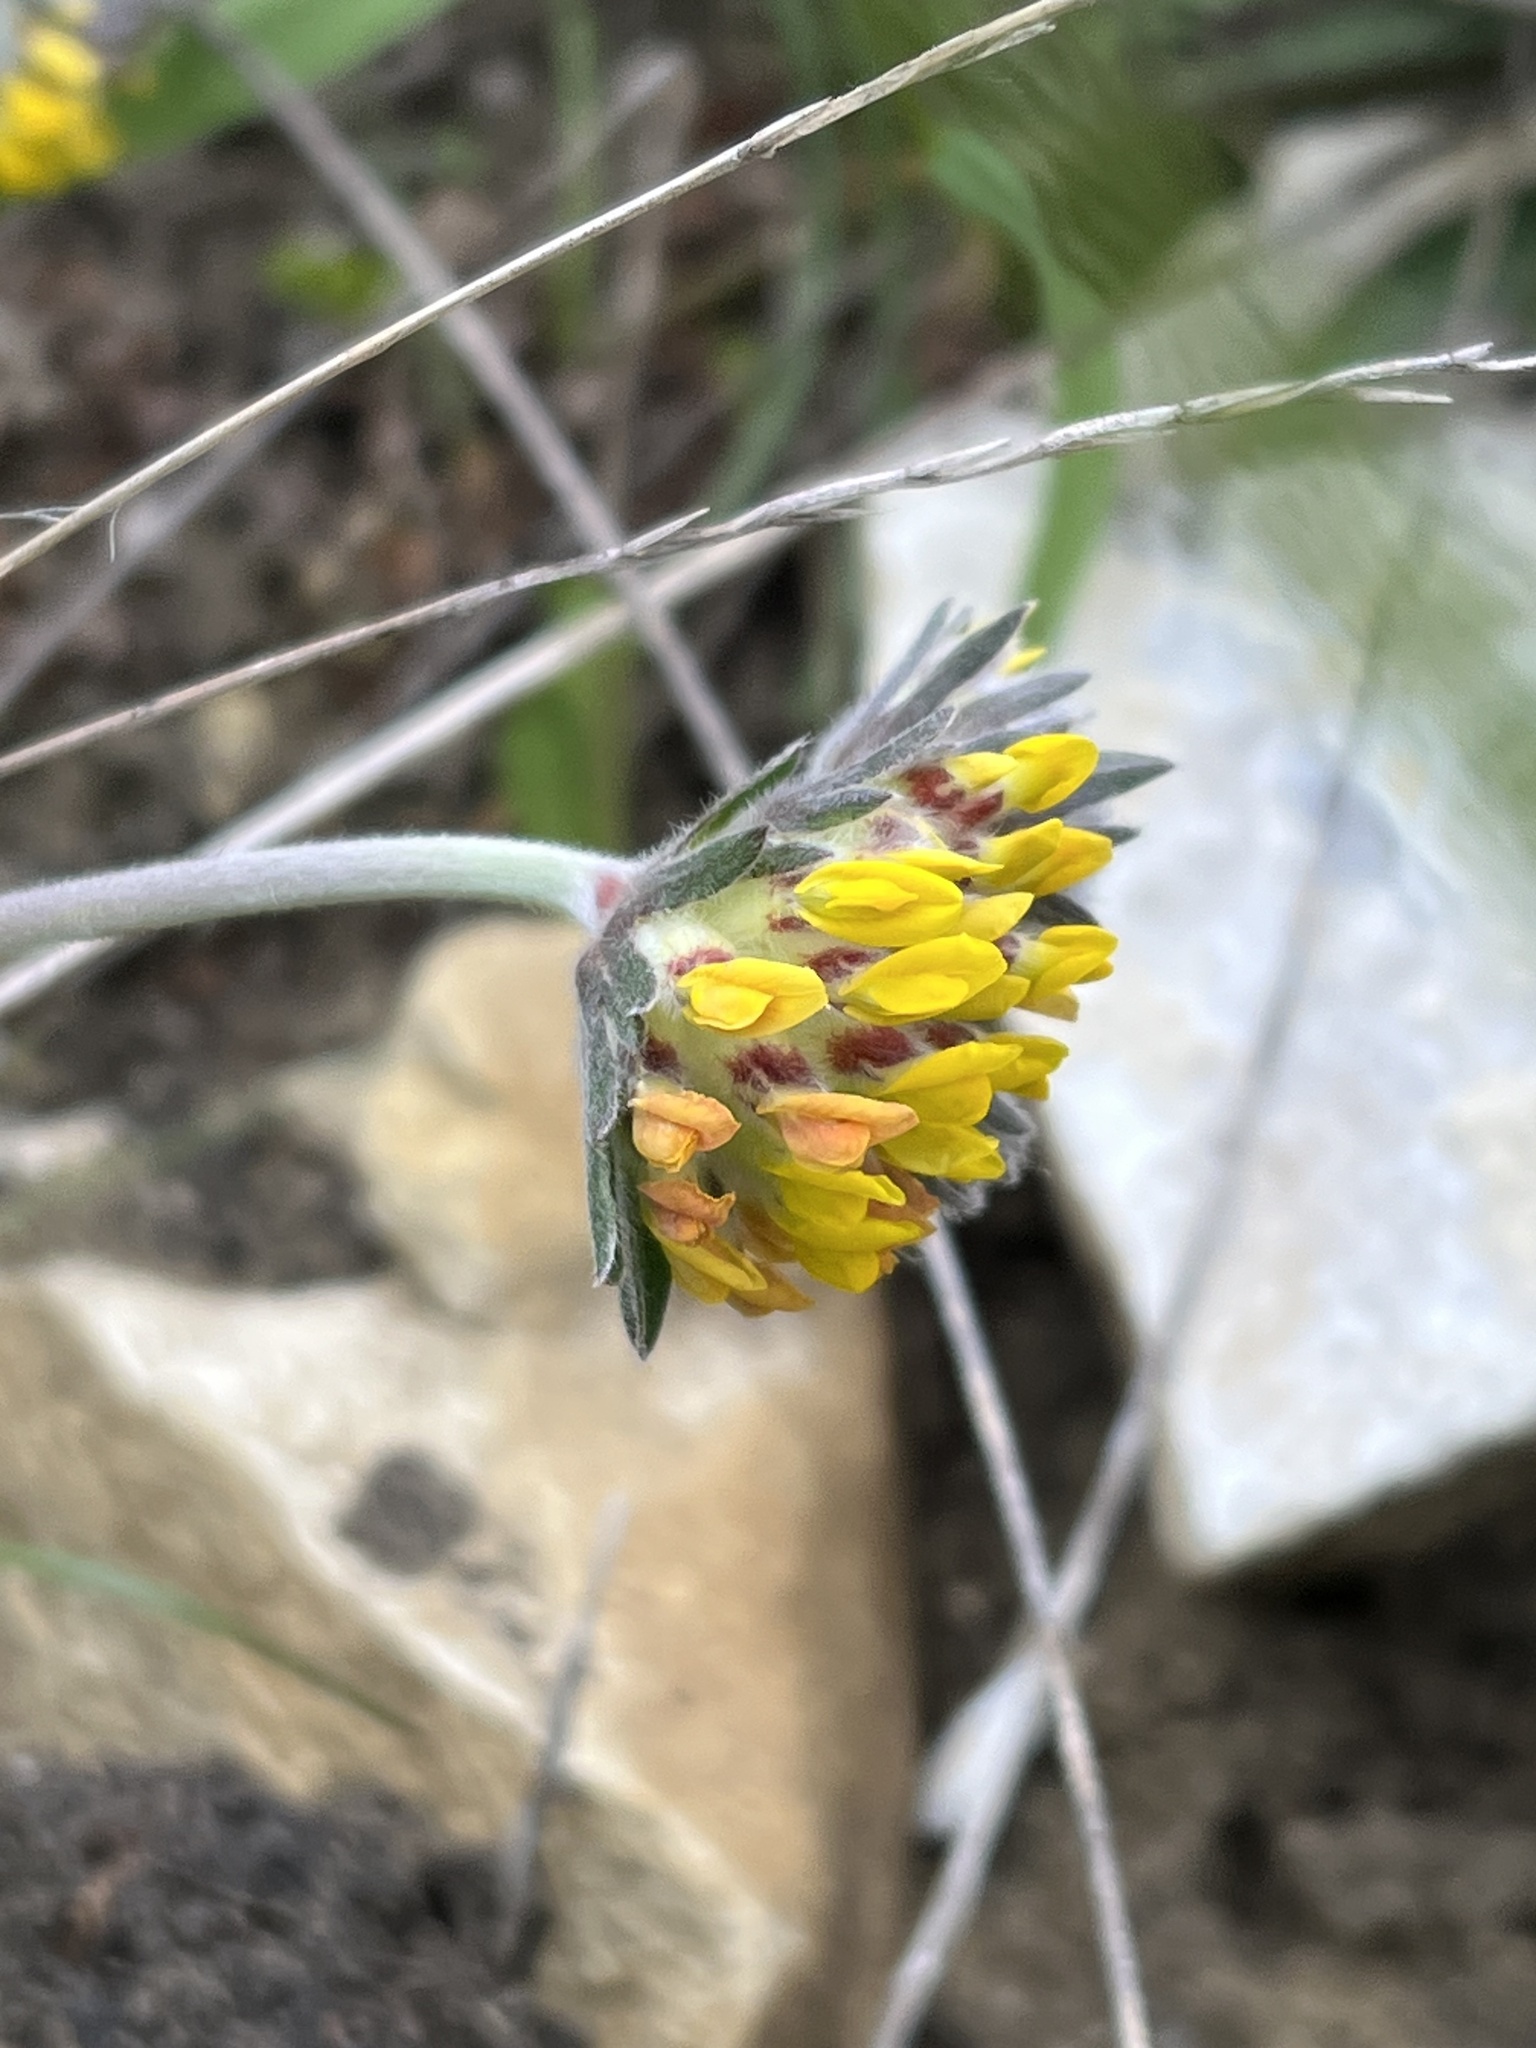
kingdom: Plantae
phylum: Tracheophyta
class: Magnoliopsida
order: Fabales
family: Fabaceae
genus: Anthyllis
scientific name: Anthyllis vulneraria
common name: Kidney vetch
